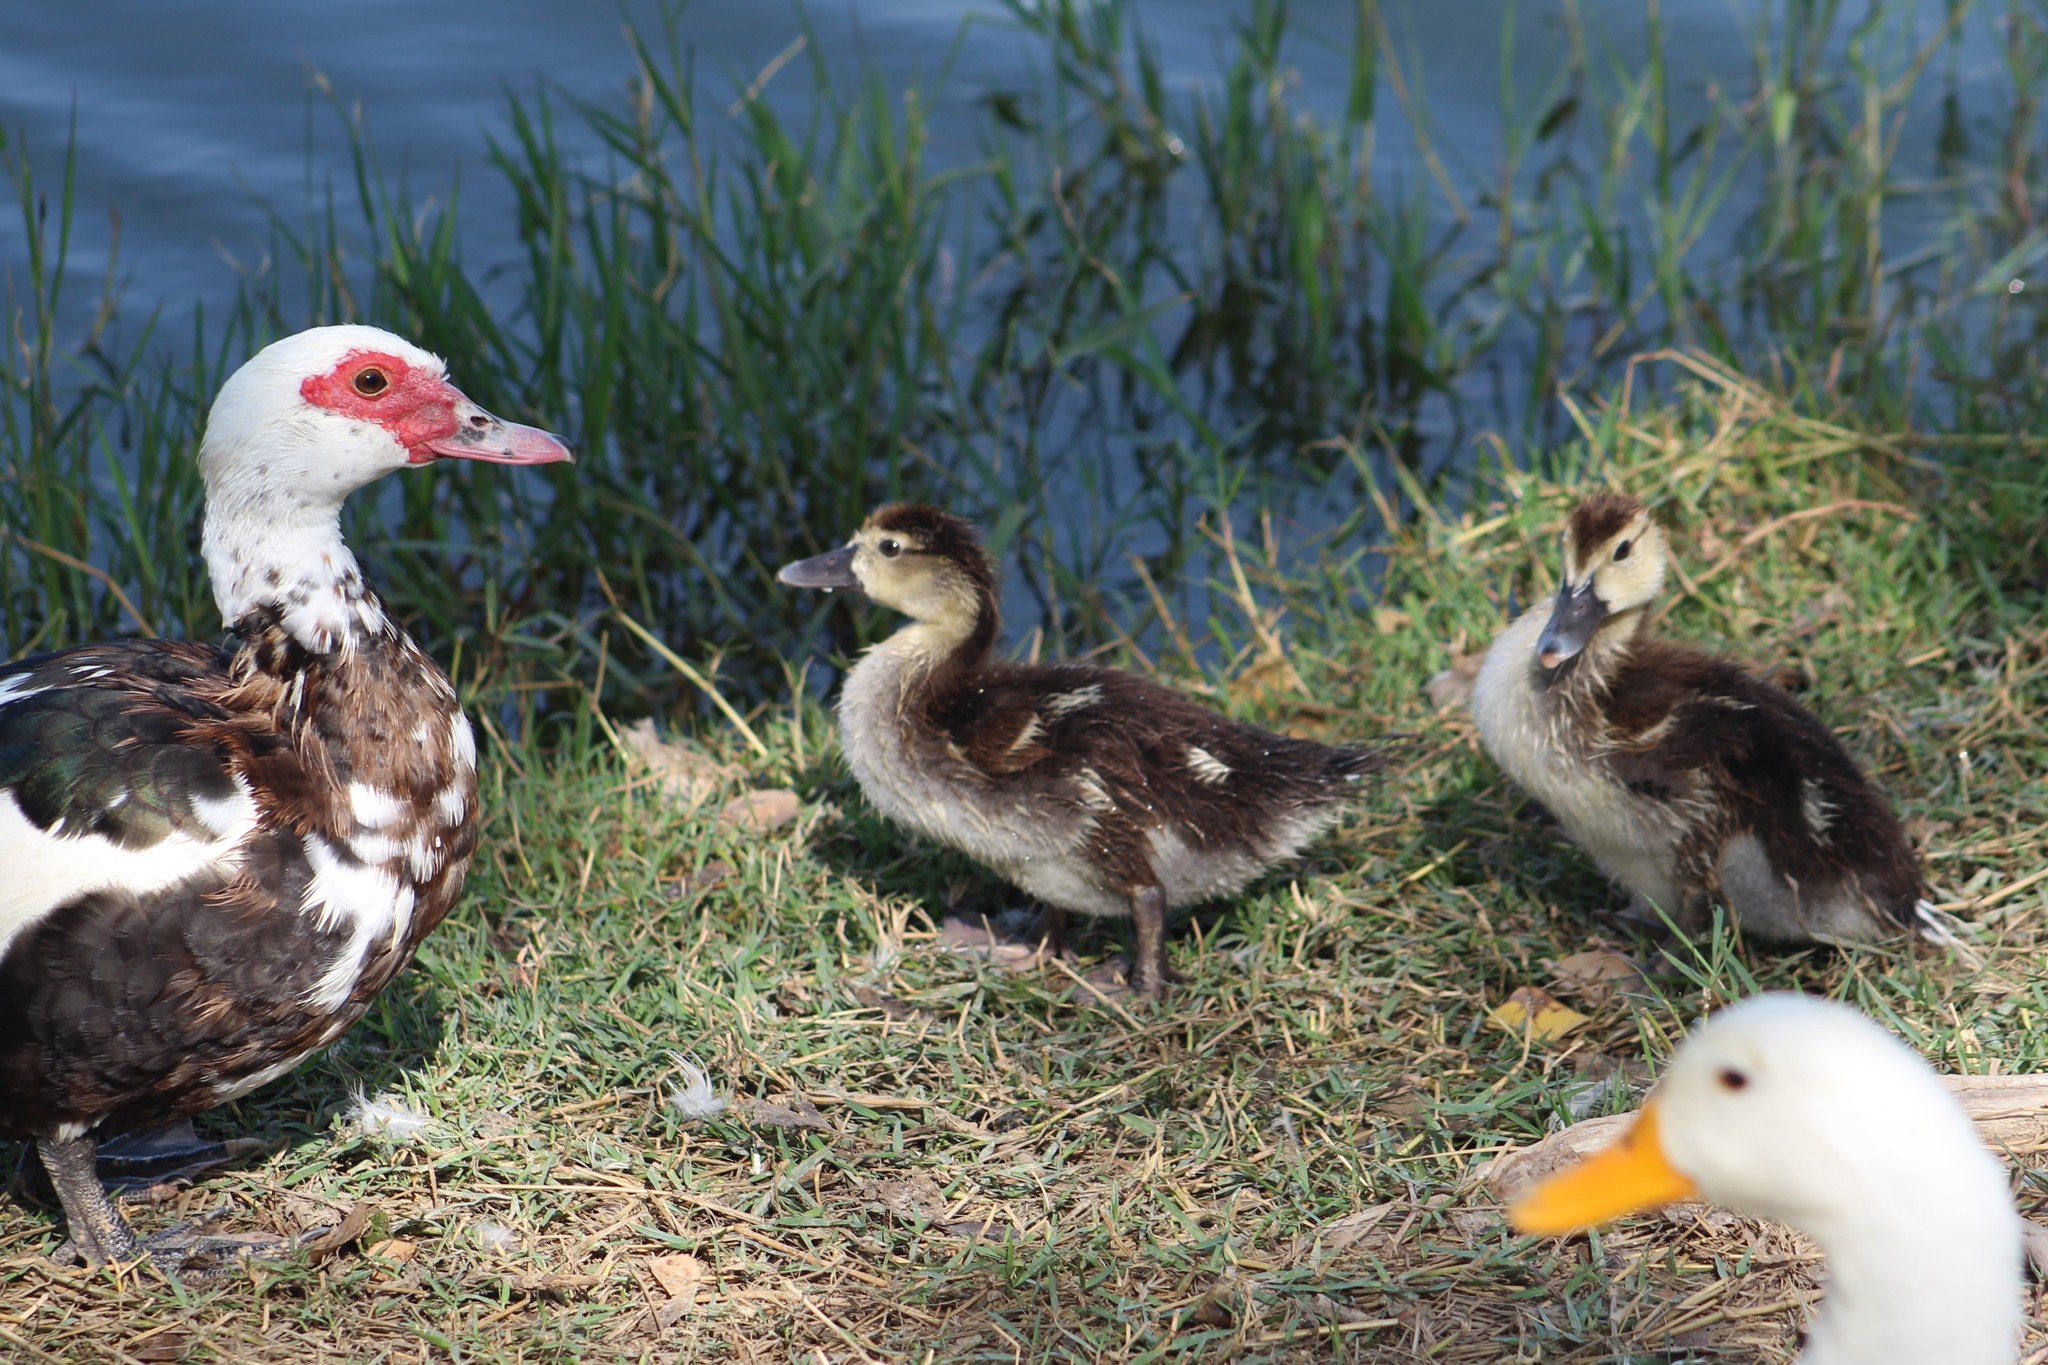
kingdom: Animalia
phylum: Chordata
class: Aves
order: Anseriformes
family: Anatidae
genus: Cairina
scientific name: Cairina moschata
